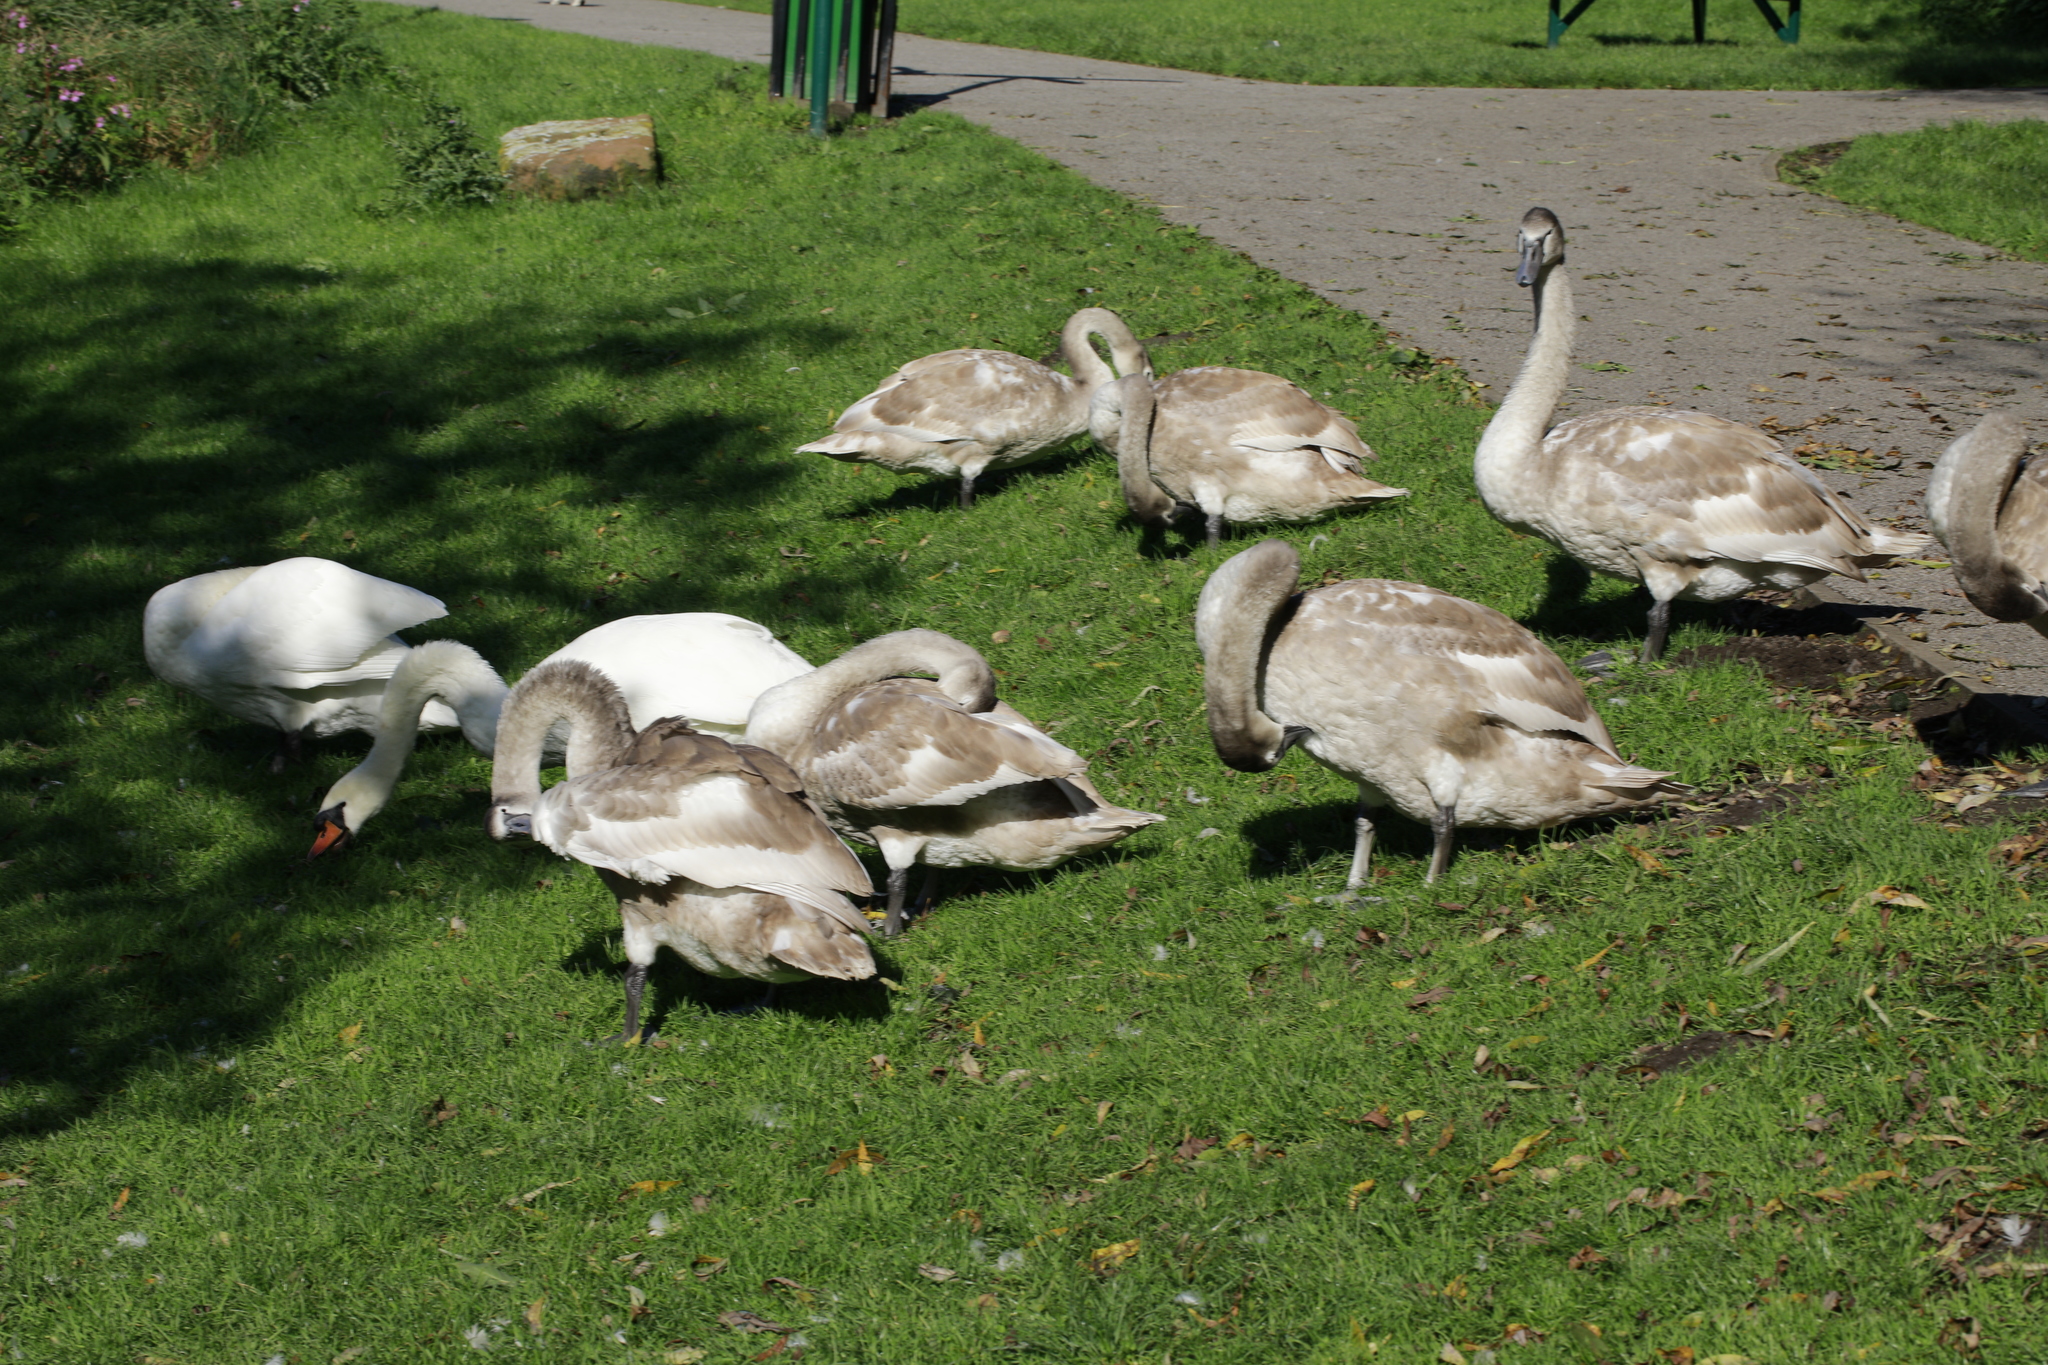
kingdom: Animalia
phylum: Chordata
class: Aves
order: Anseriformes
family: Anatidae
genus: Cygnus
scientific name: Cygnus olor
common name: Mute swan
